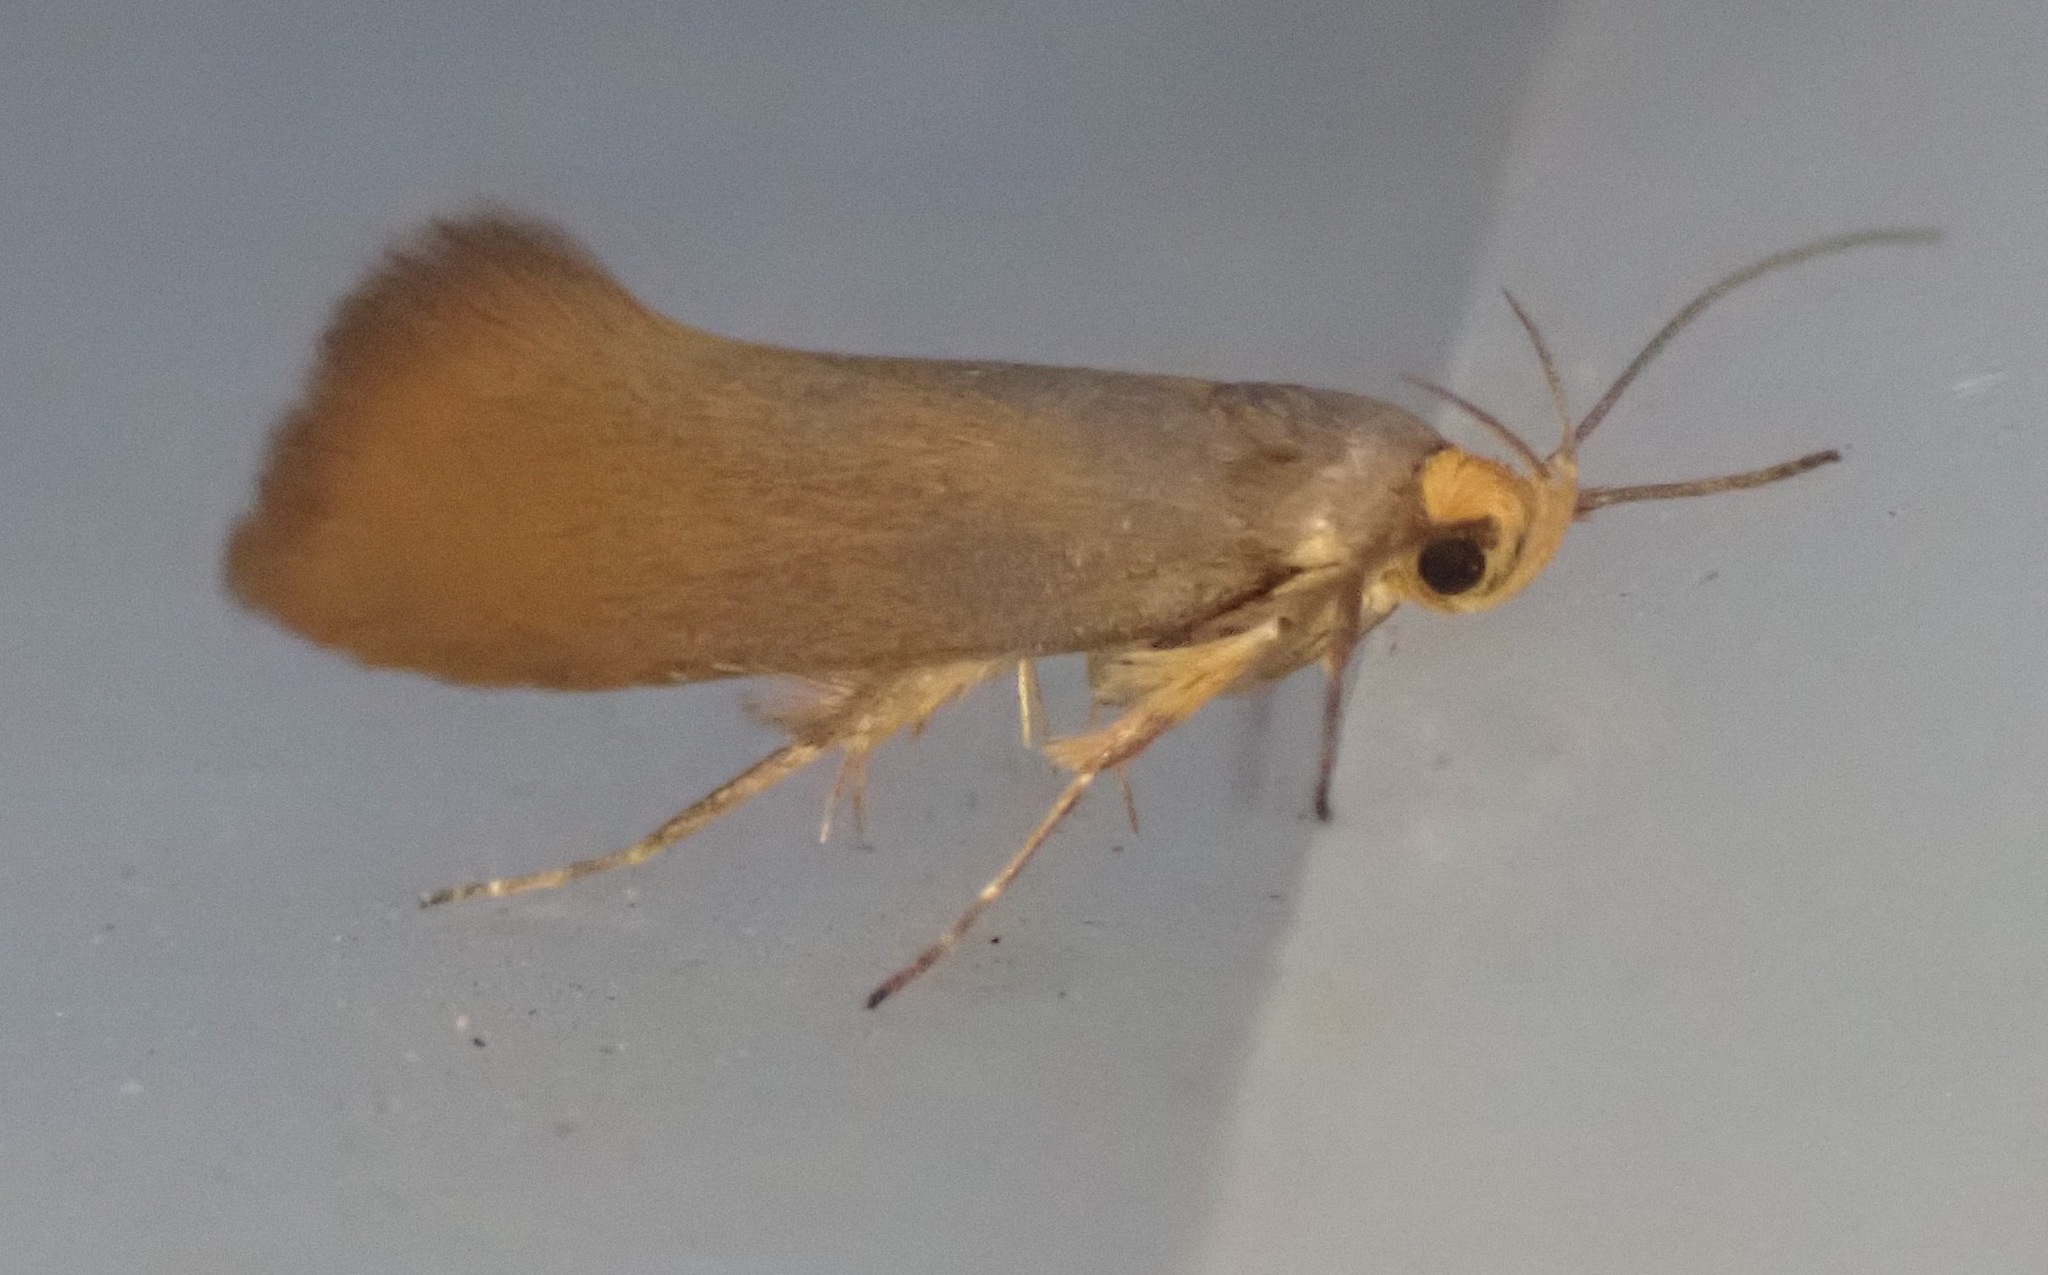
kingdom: Animalia
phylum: Arthropoda
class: Insecta
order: Lepidoptera
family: Oecophoridae
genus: Borkhausenia
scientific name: Borkhausenia Crassa unitella
